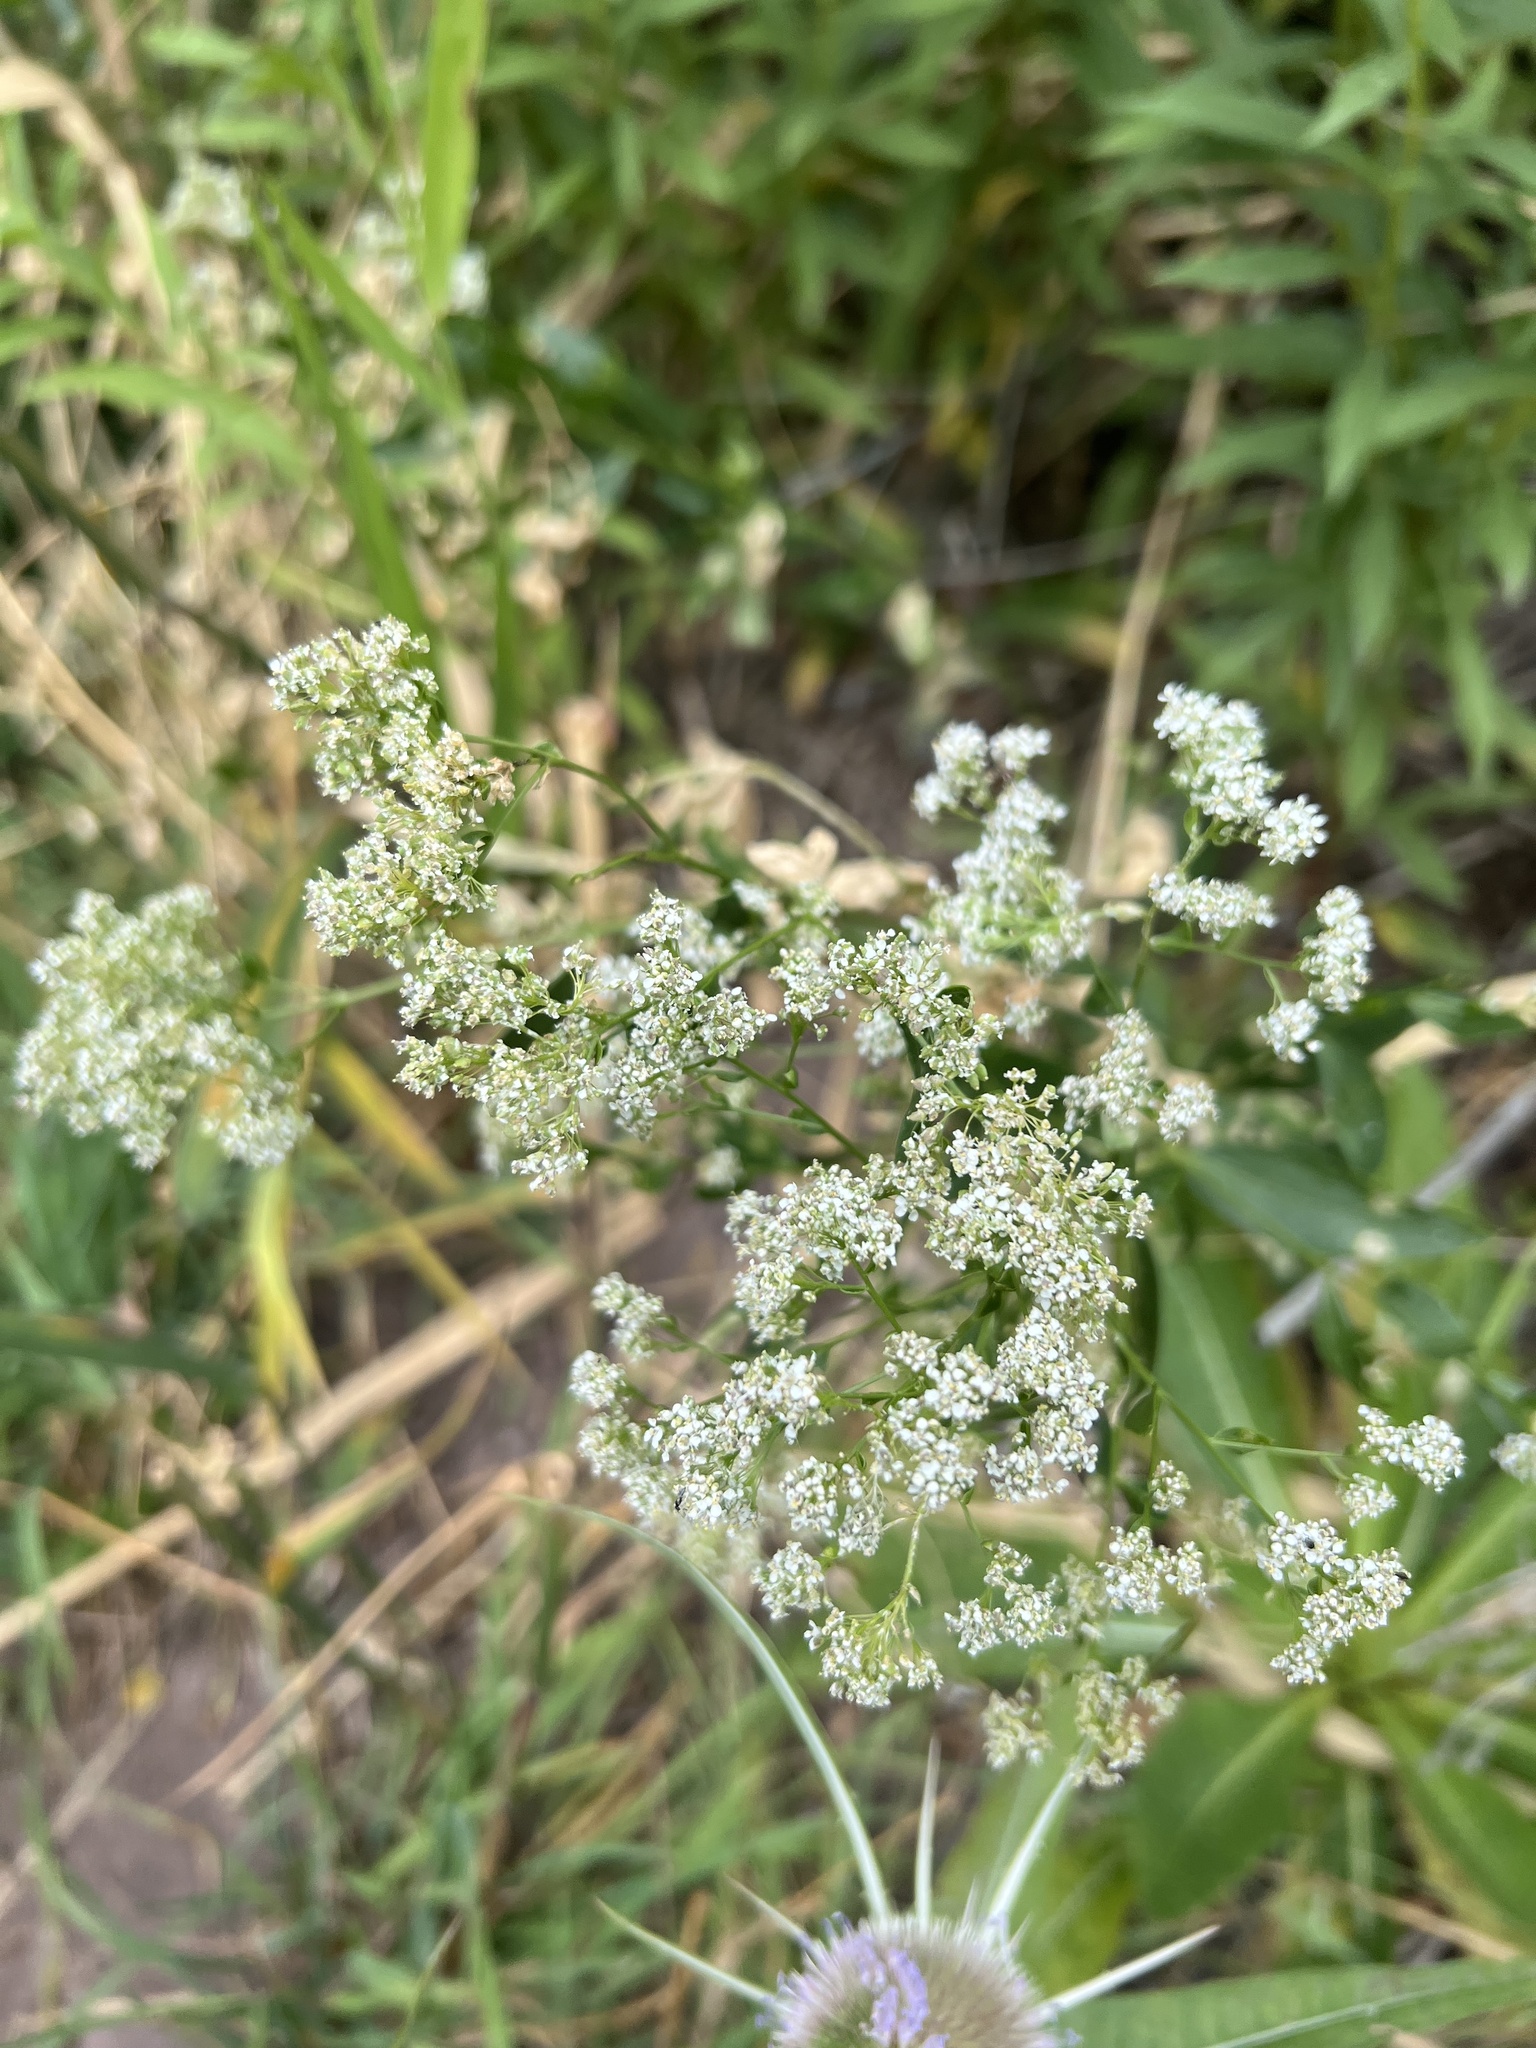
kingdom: Plantae
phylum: Tracheophyta
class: Magnoliopsida
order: Brassicales
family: Brassicaceae
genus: Lepidium
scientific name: Lepidium latifolium
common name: Dittander
